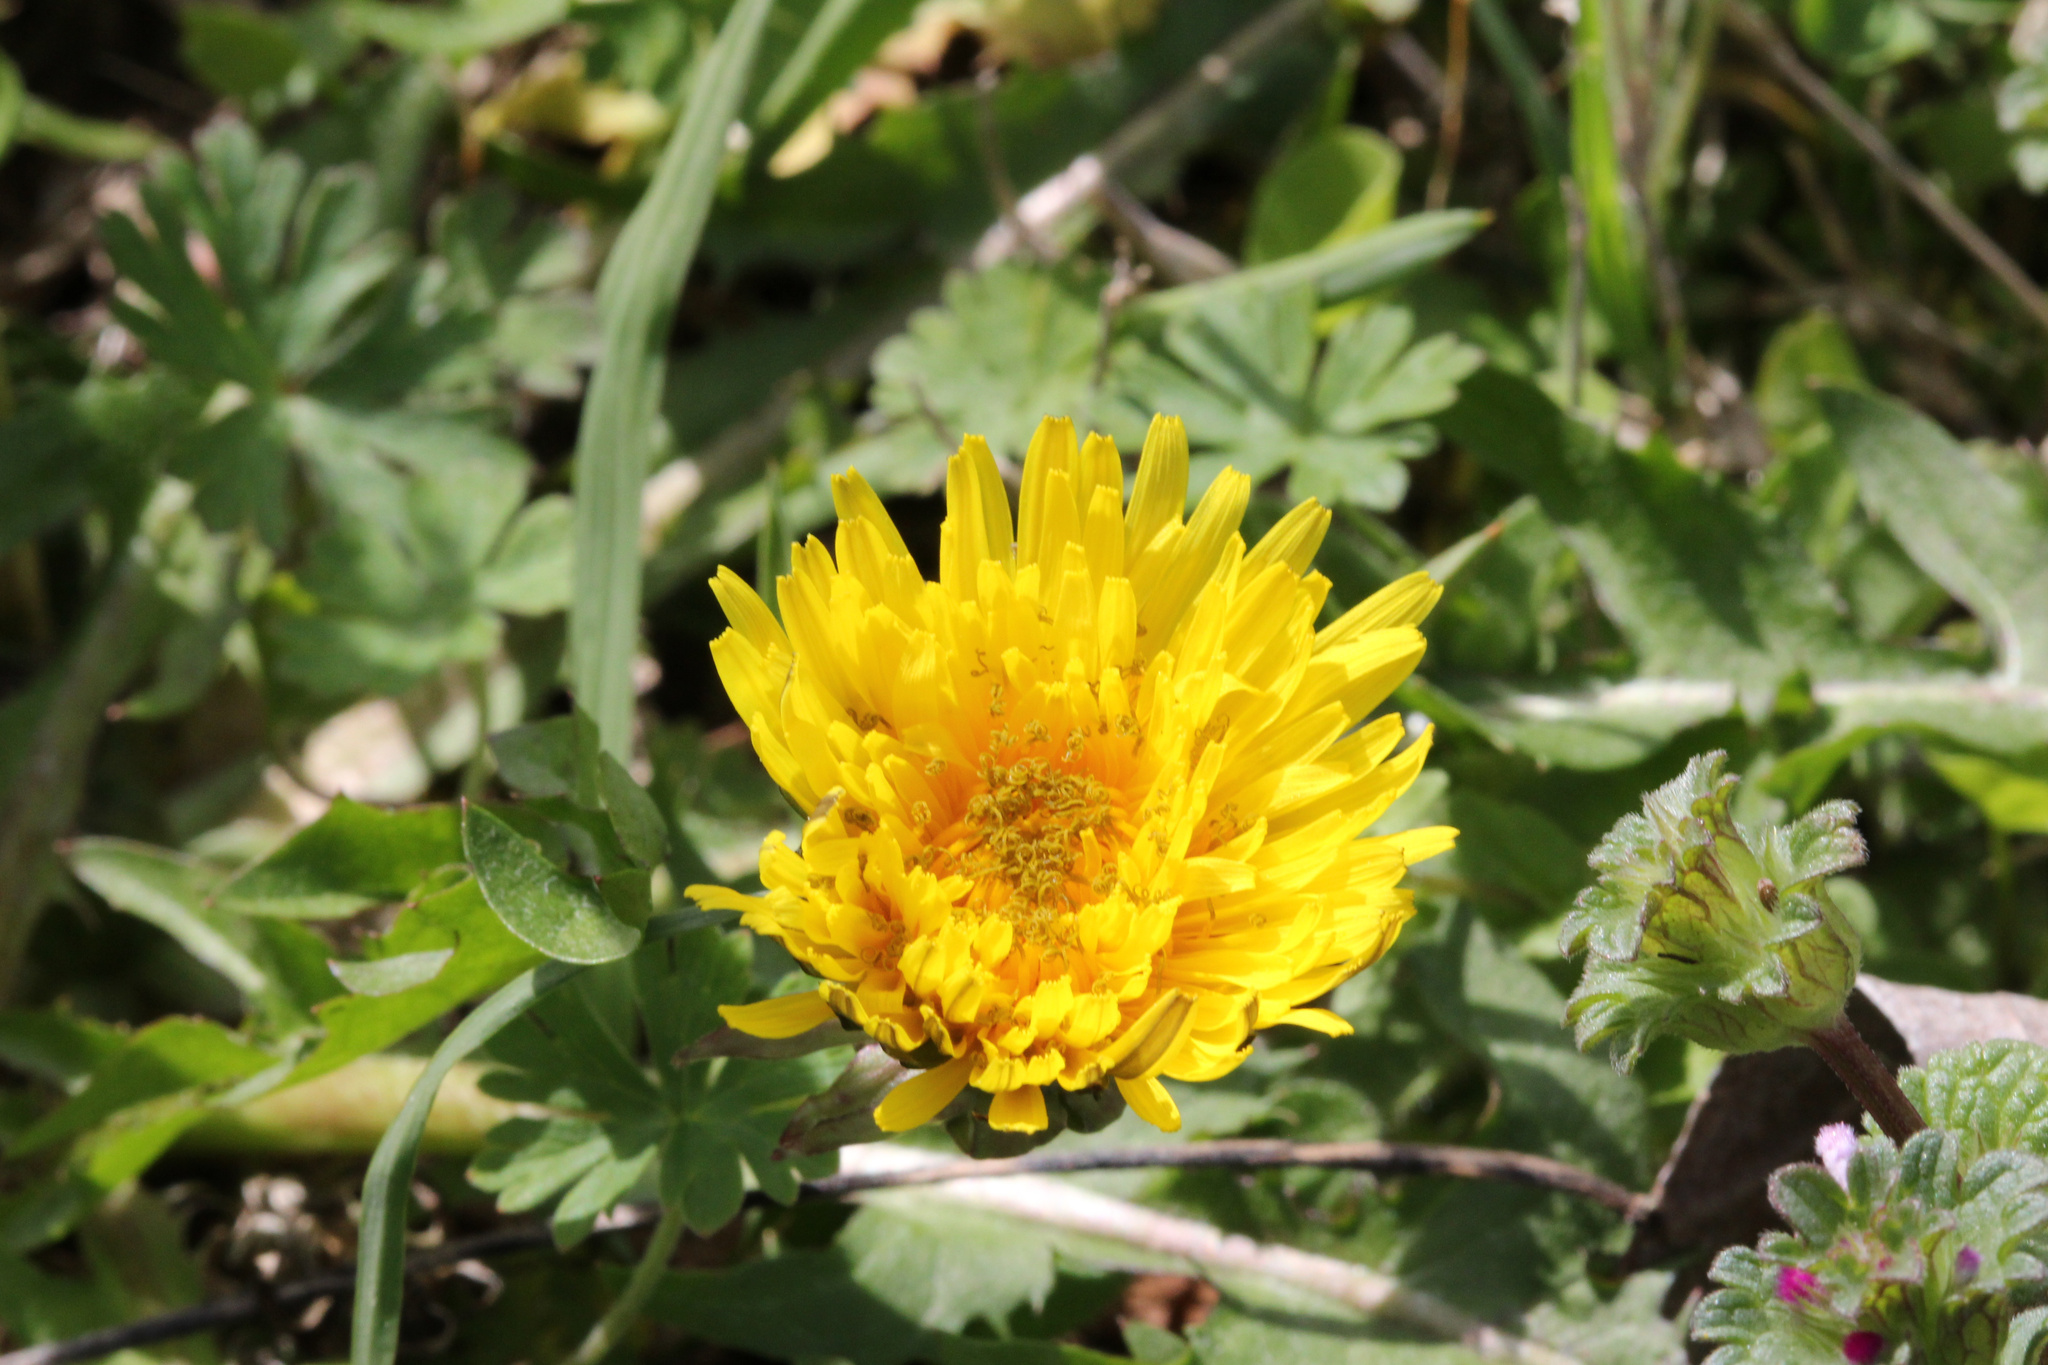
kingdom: Plantae
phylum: Tracheophyta
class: Magnoliopsida
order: Asterales
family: Asteraceae
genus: Taraxacum
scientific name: Taraxacum officinale
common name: Common dandelion
